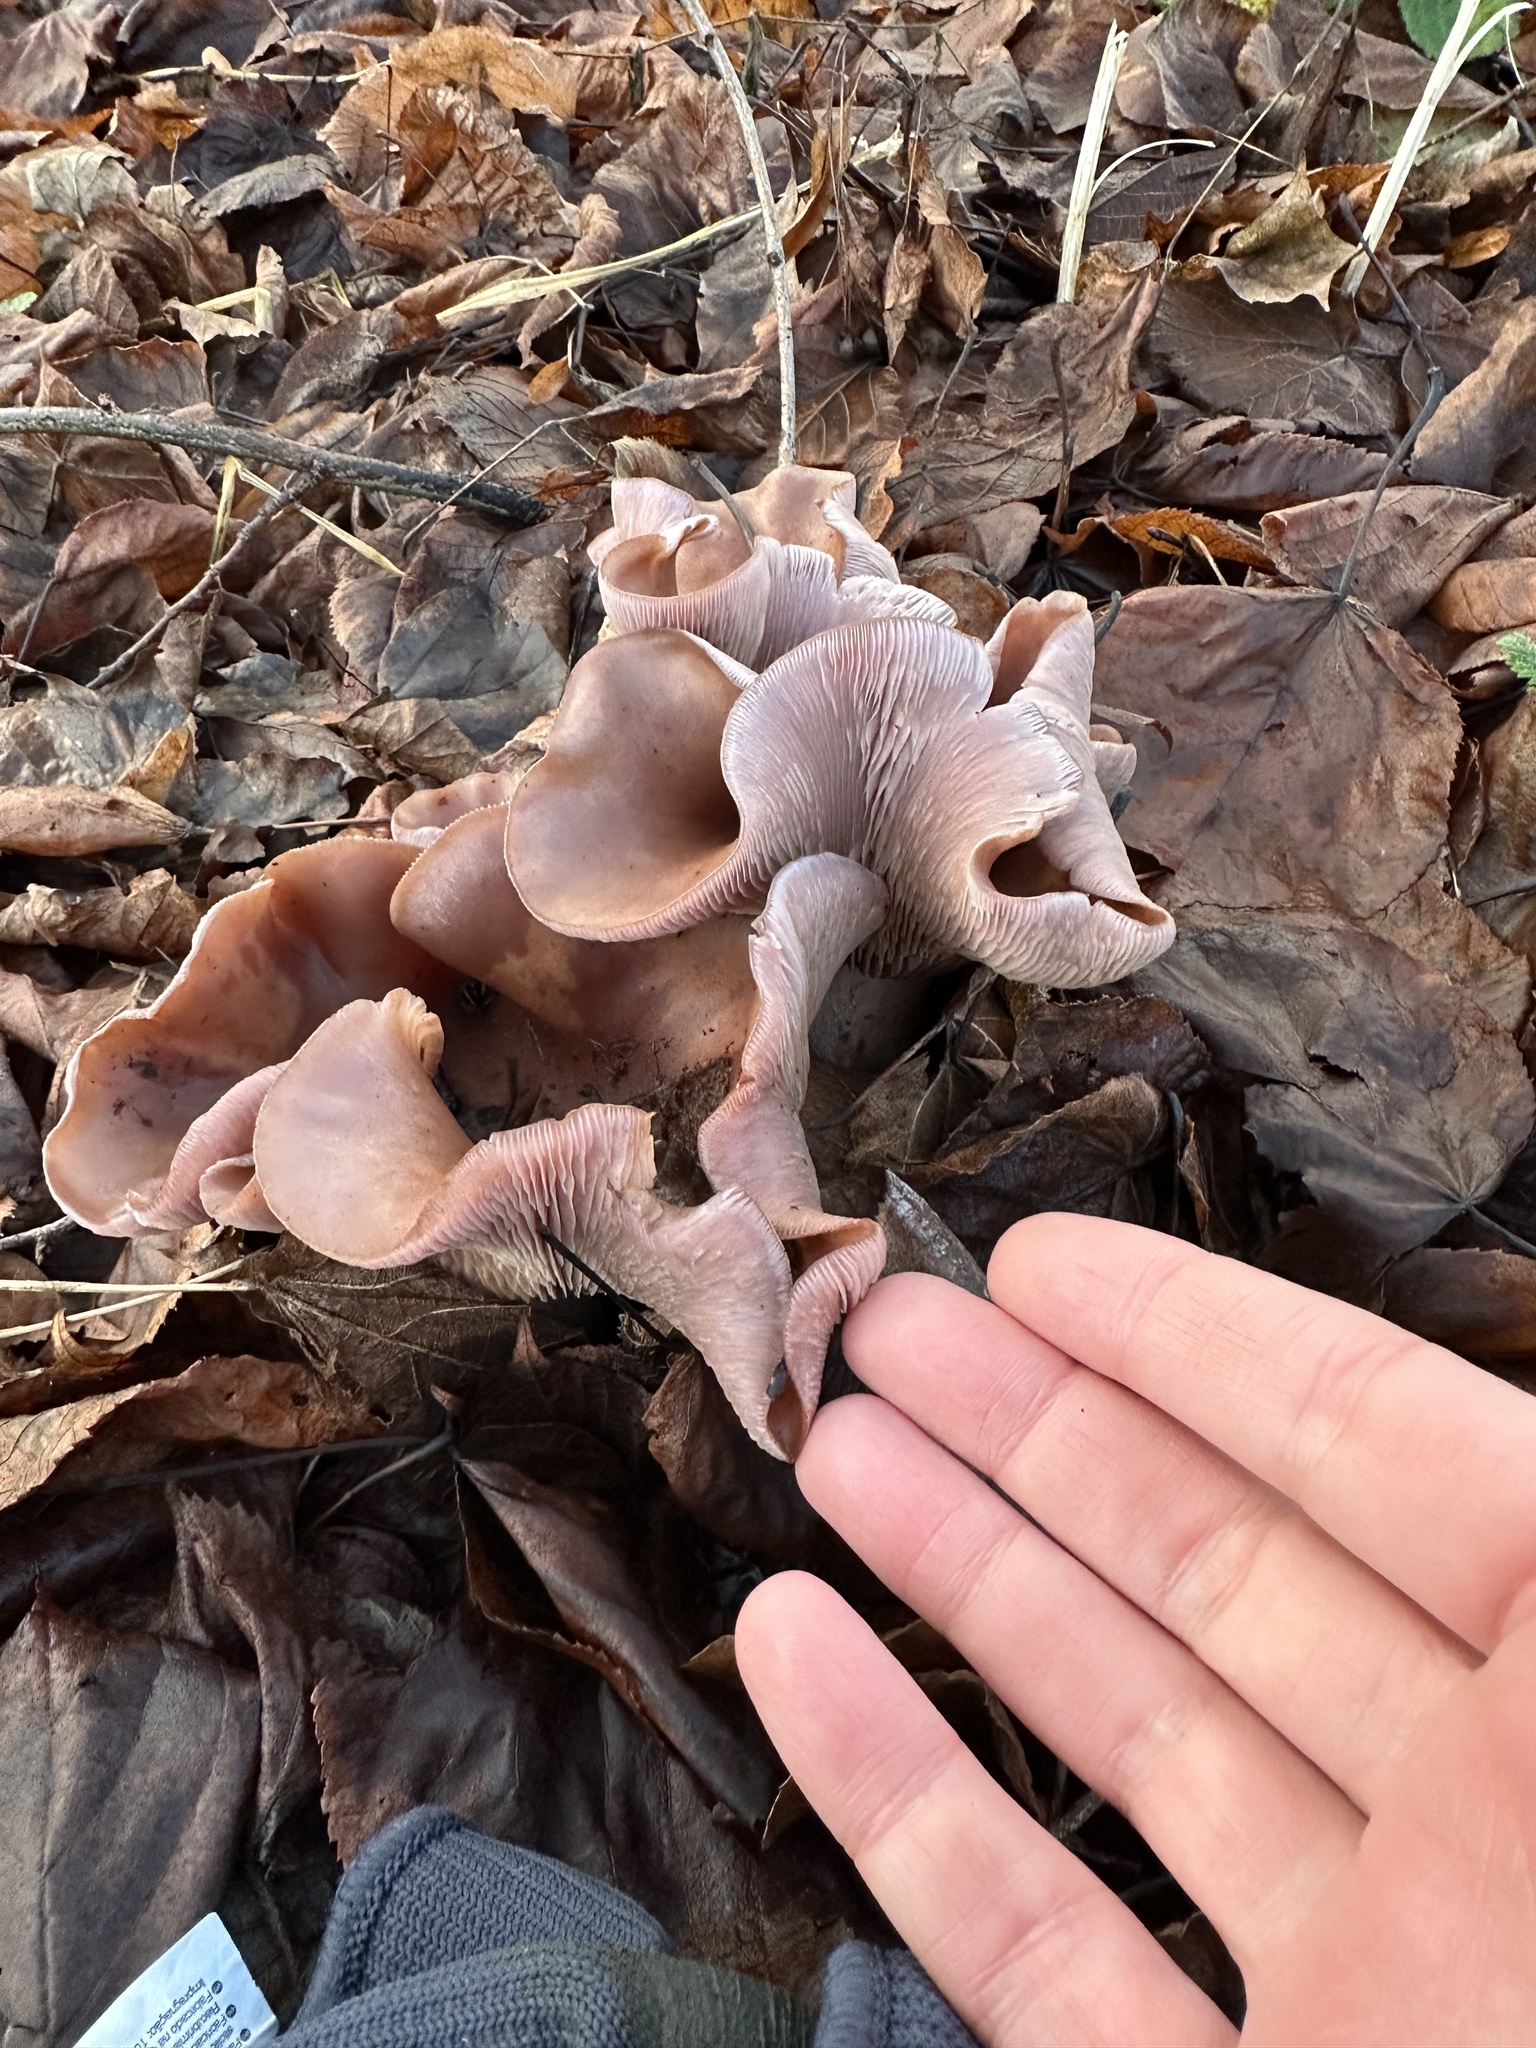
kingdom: Fungi
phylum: Basidiomycota
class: Agaricomycetes
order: Agaricales
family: Tricholomataceae
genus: Collybia
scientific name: Collybia
